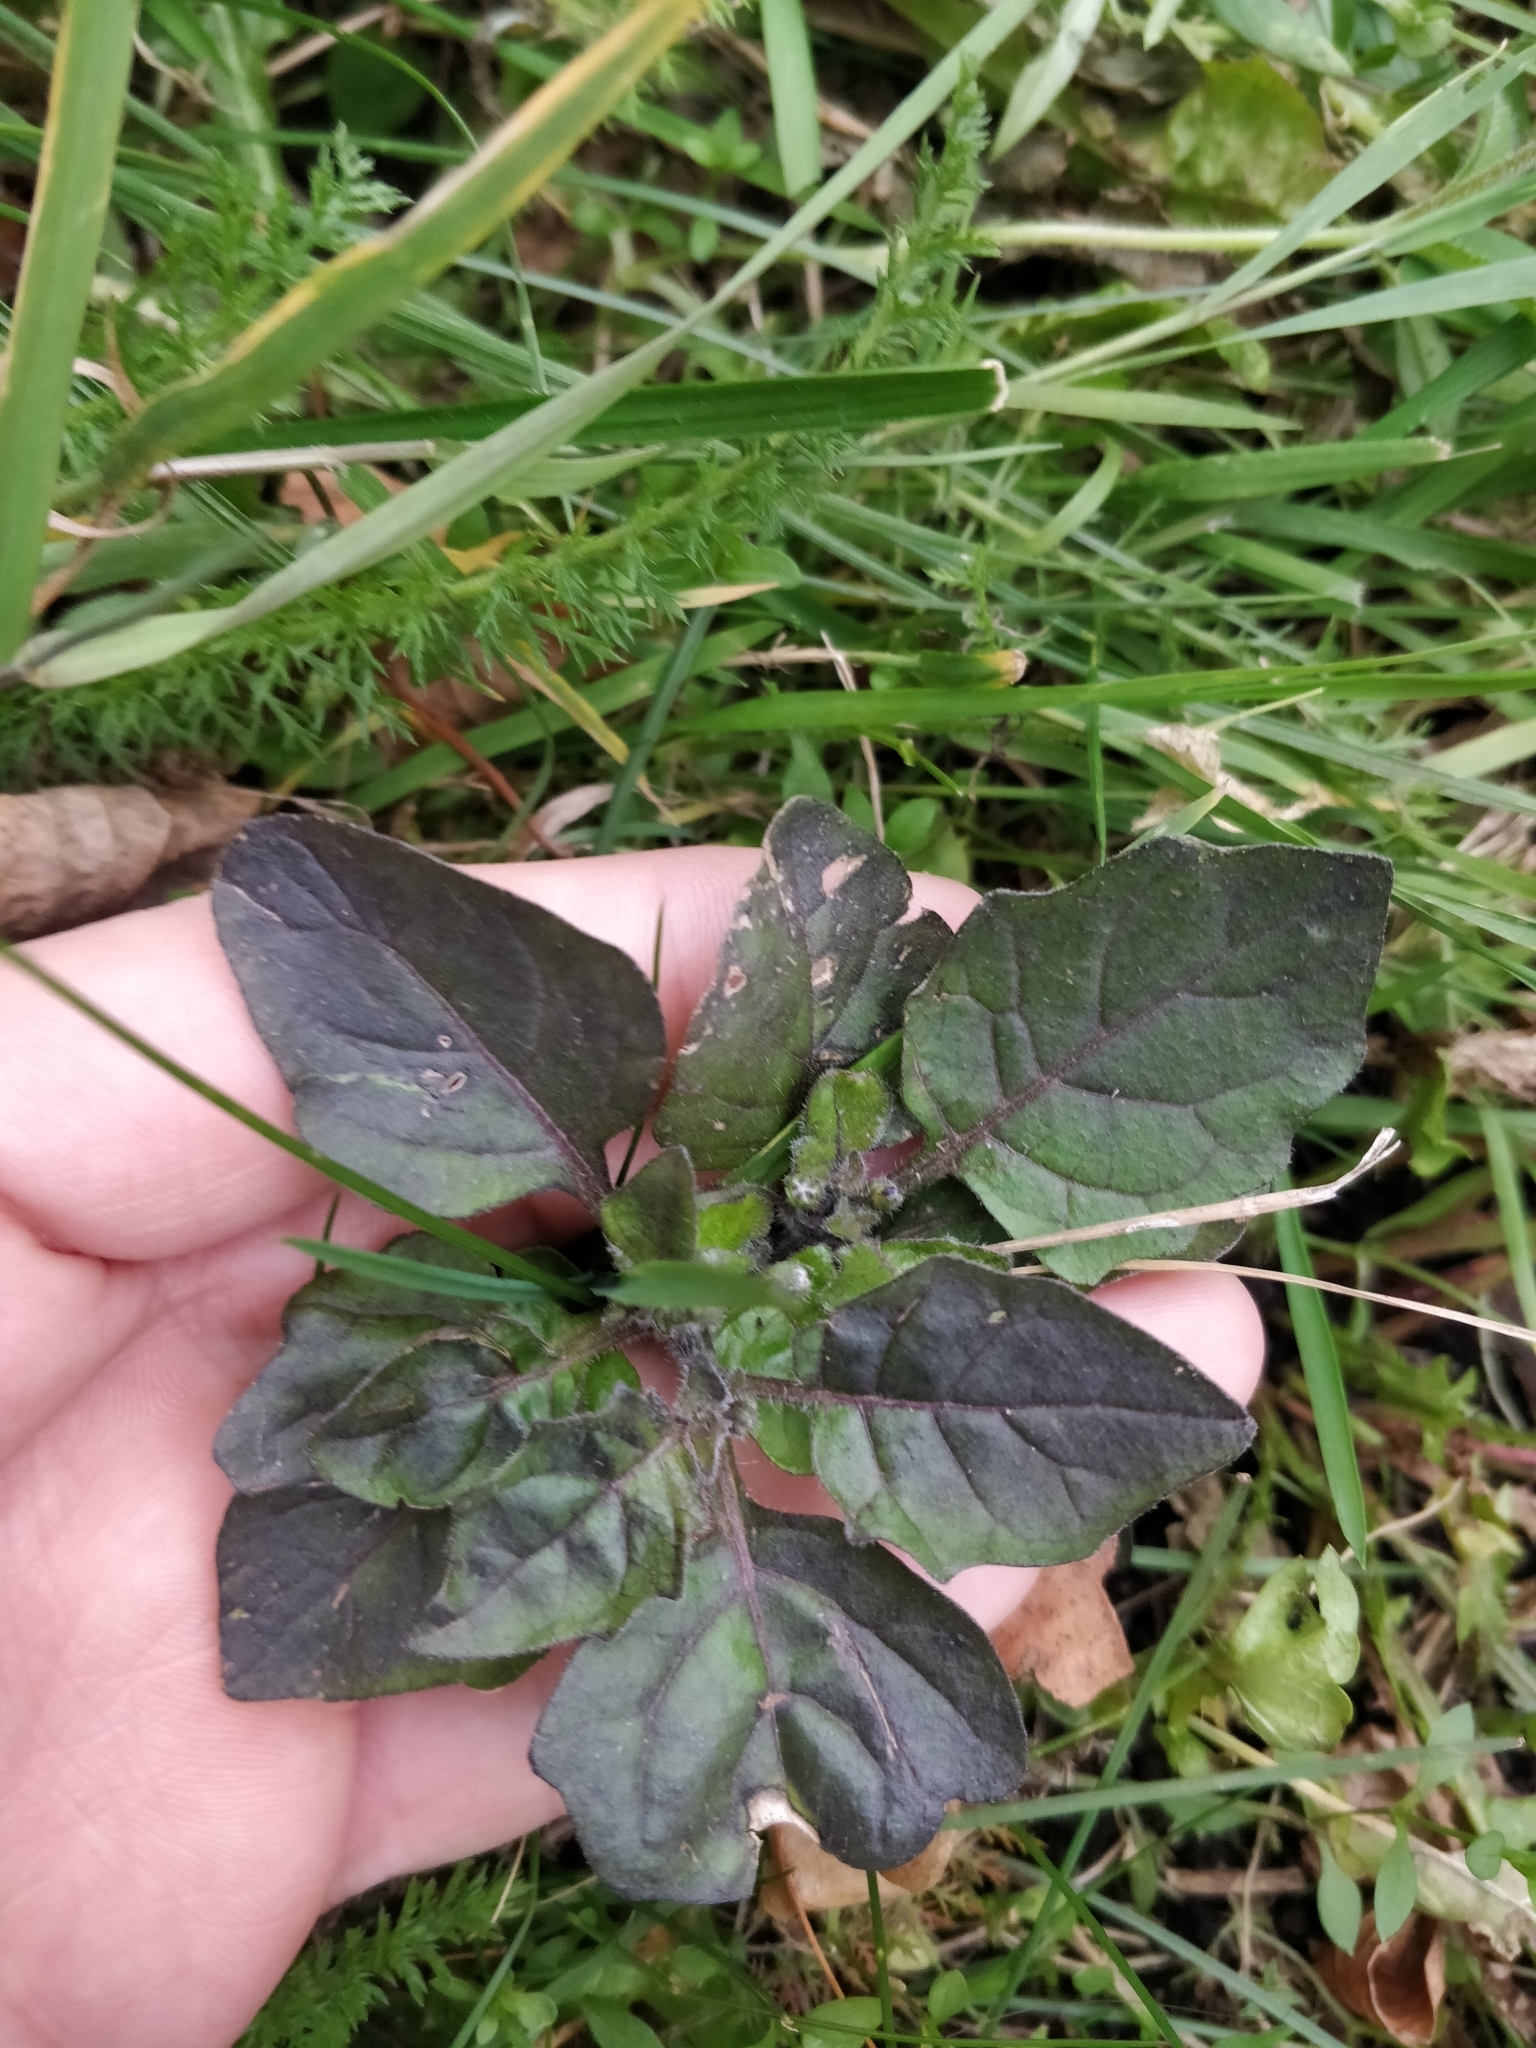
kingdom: Plantae
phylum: Tracheophyta
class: Magnoliopsida
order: Solanales
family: Solanaceae
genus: Solanum
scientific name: Solanum nigrum
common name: Black nightshade
